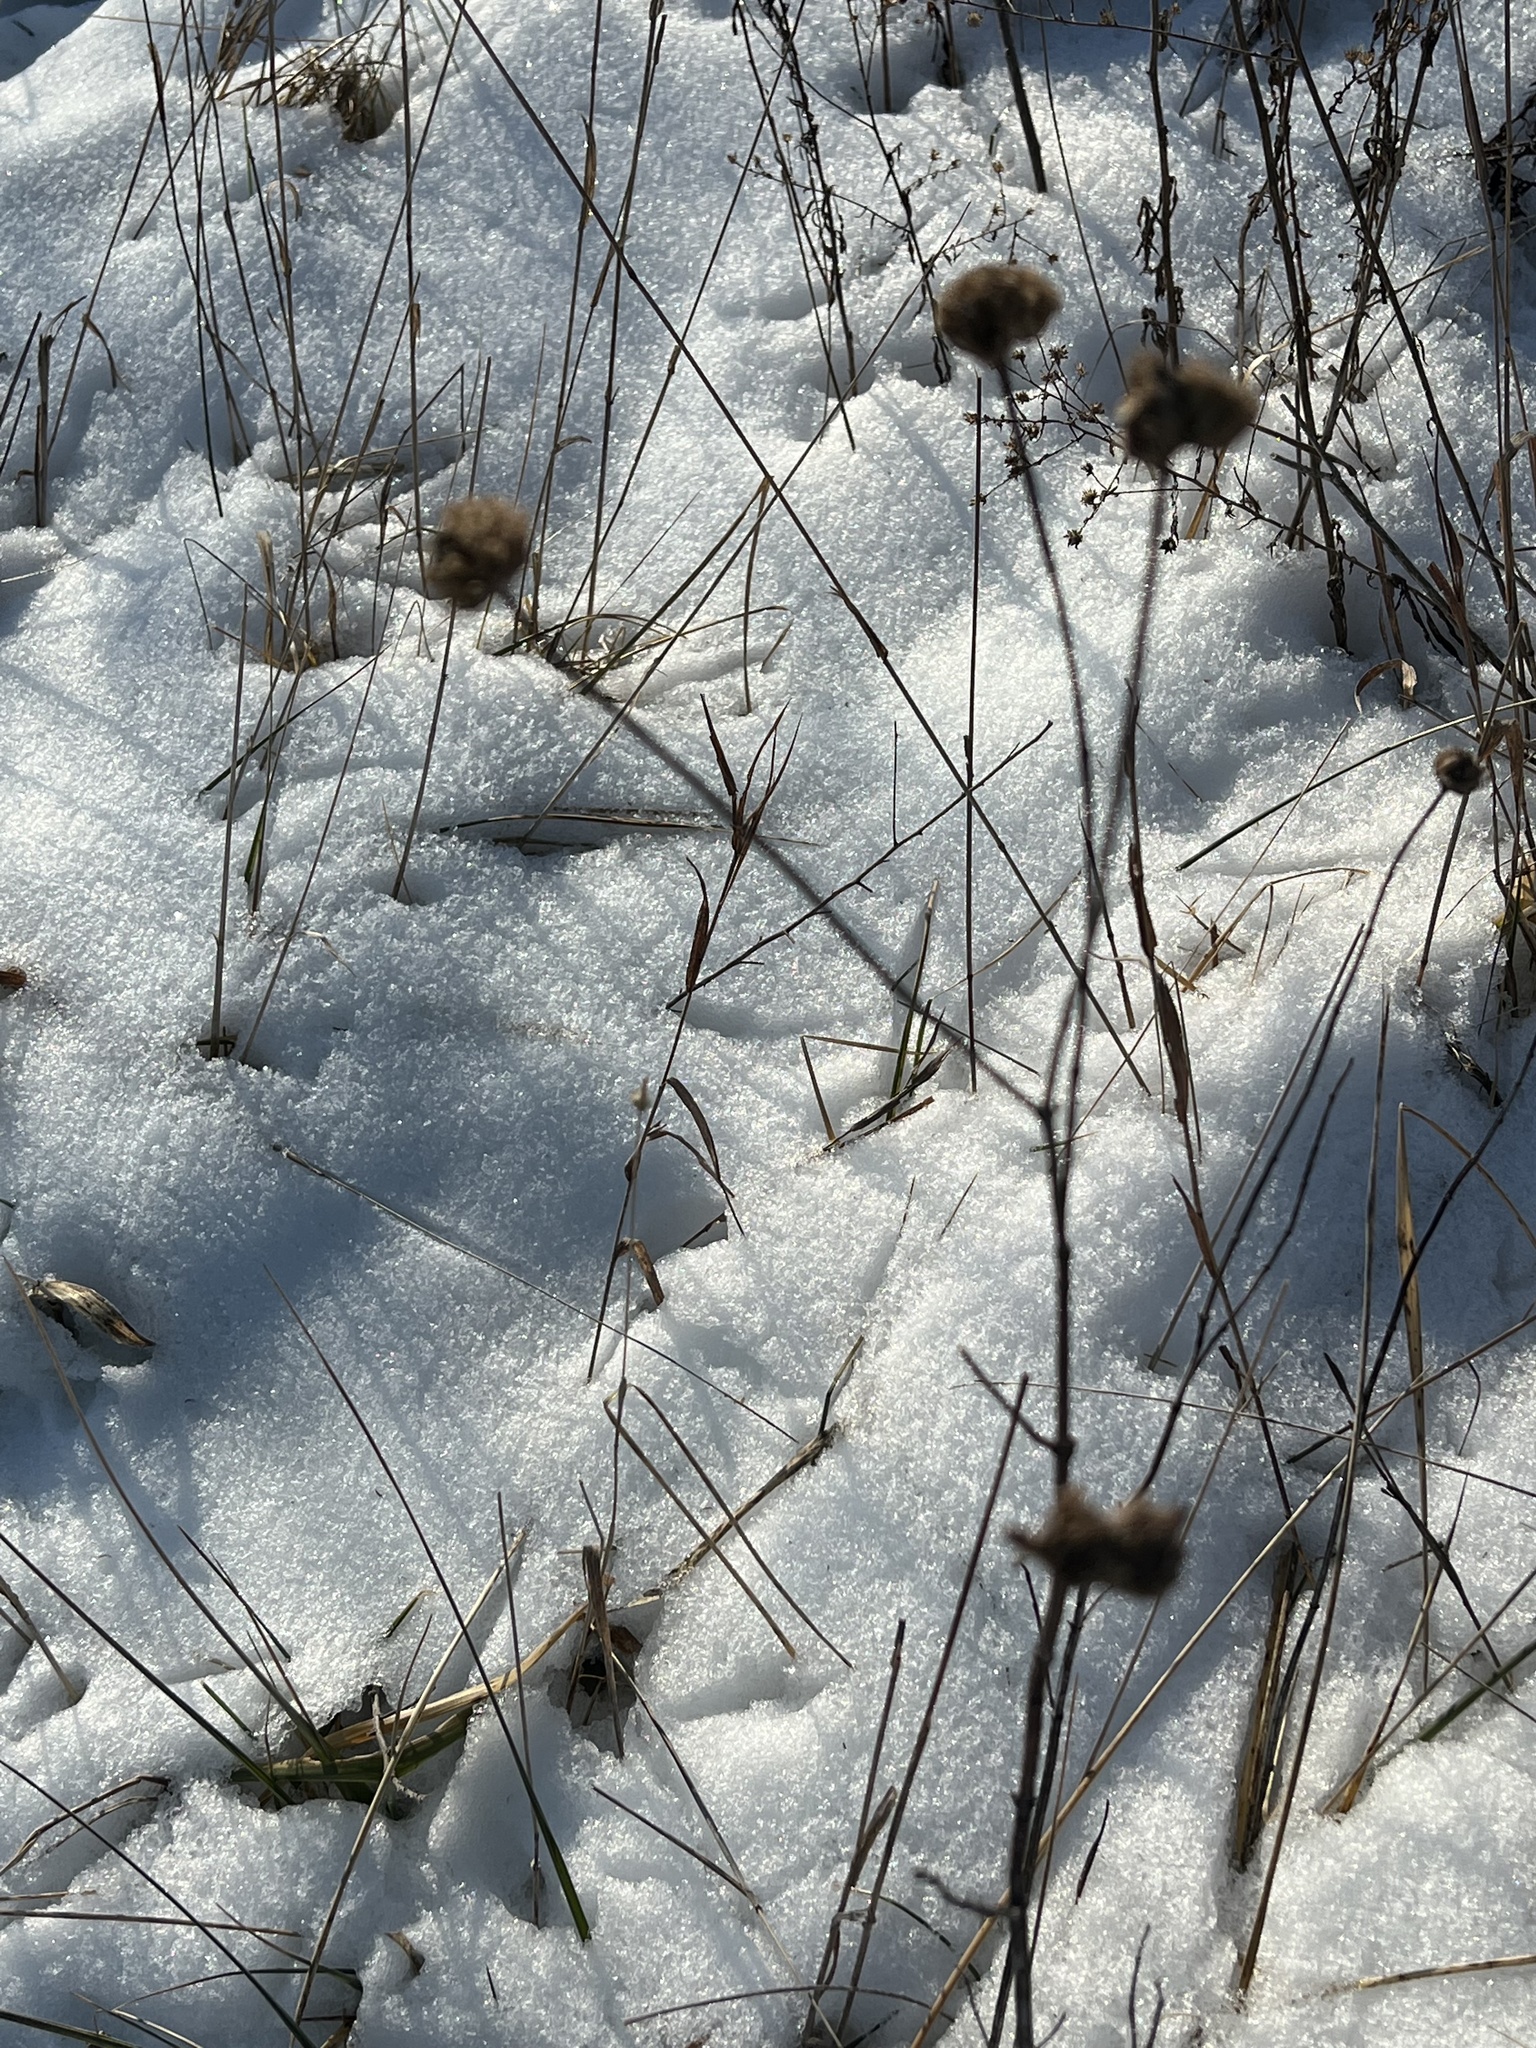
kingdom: Plantae
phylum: Tracheophyta
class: Magnoliopsida
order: Lamiales
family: Lamiaceae
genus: Monarda
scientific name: Monarda fistulosa
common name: Purple beebalm
